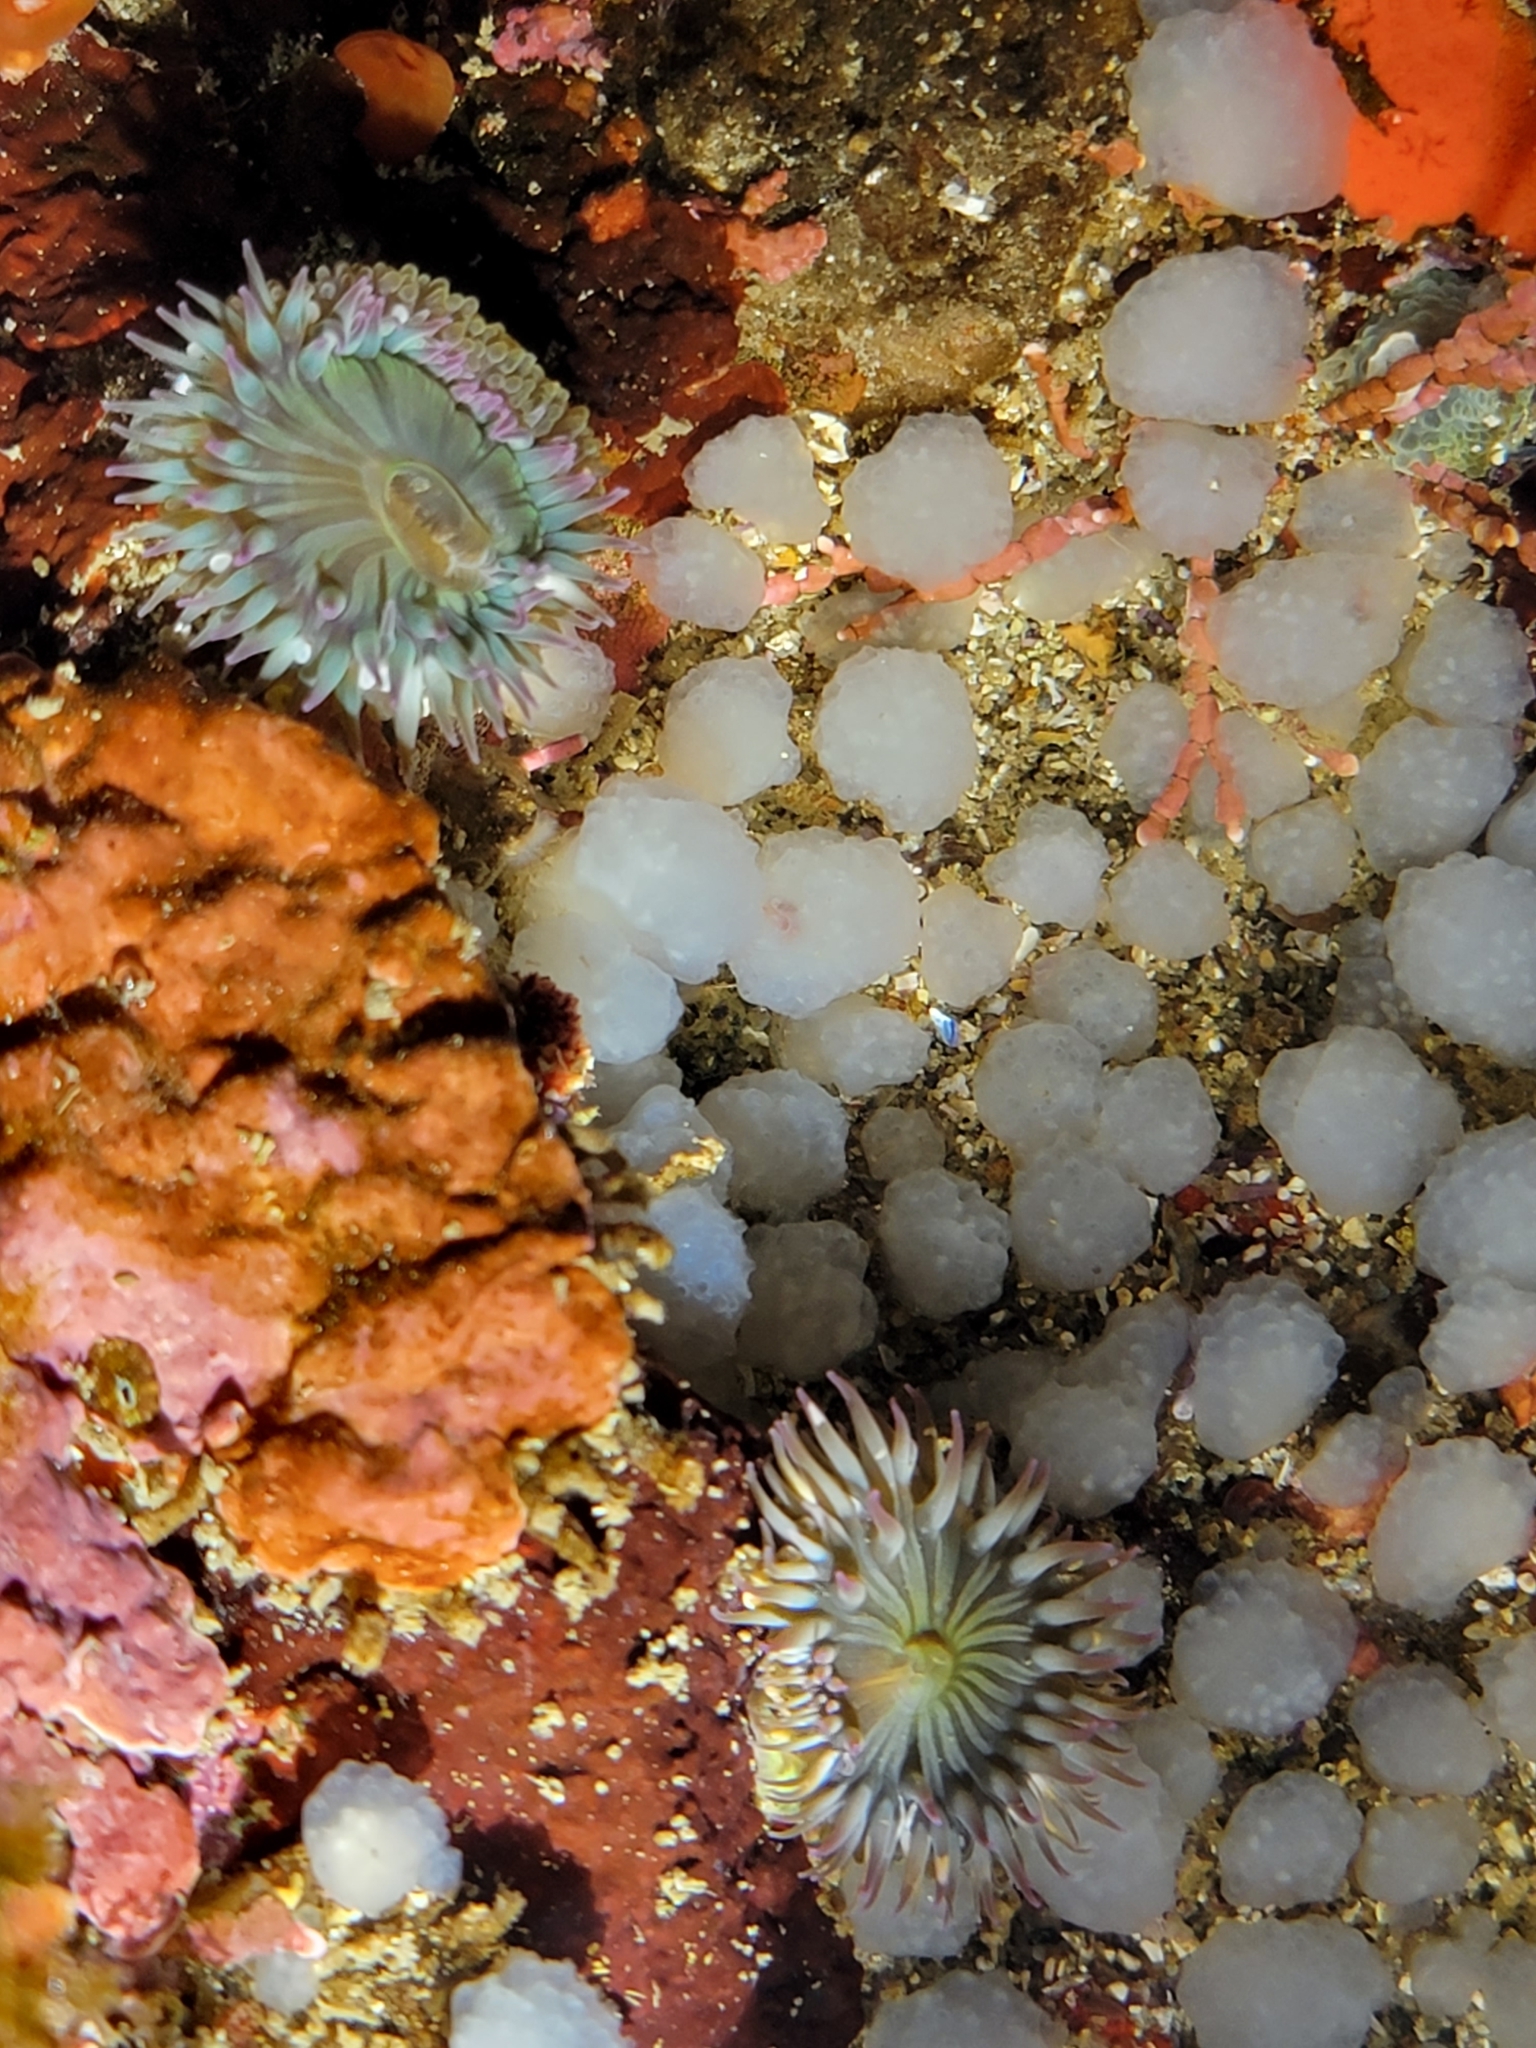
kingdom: Animalia
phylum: Cnidaria
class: Anthozoa
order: Actiniaria
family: Actiniidae
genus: Anthopleura
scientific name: Anthopleura sola
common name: Sun anemone
